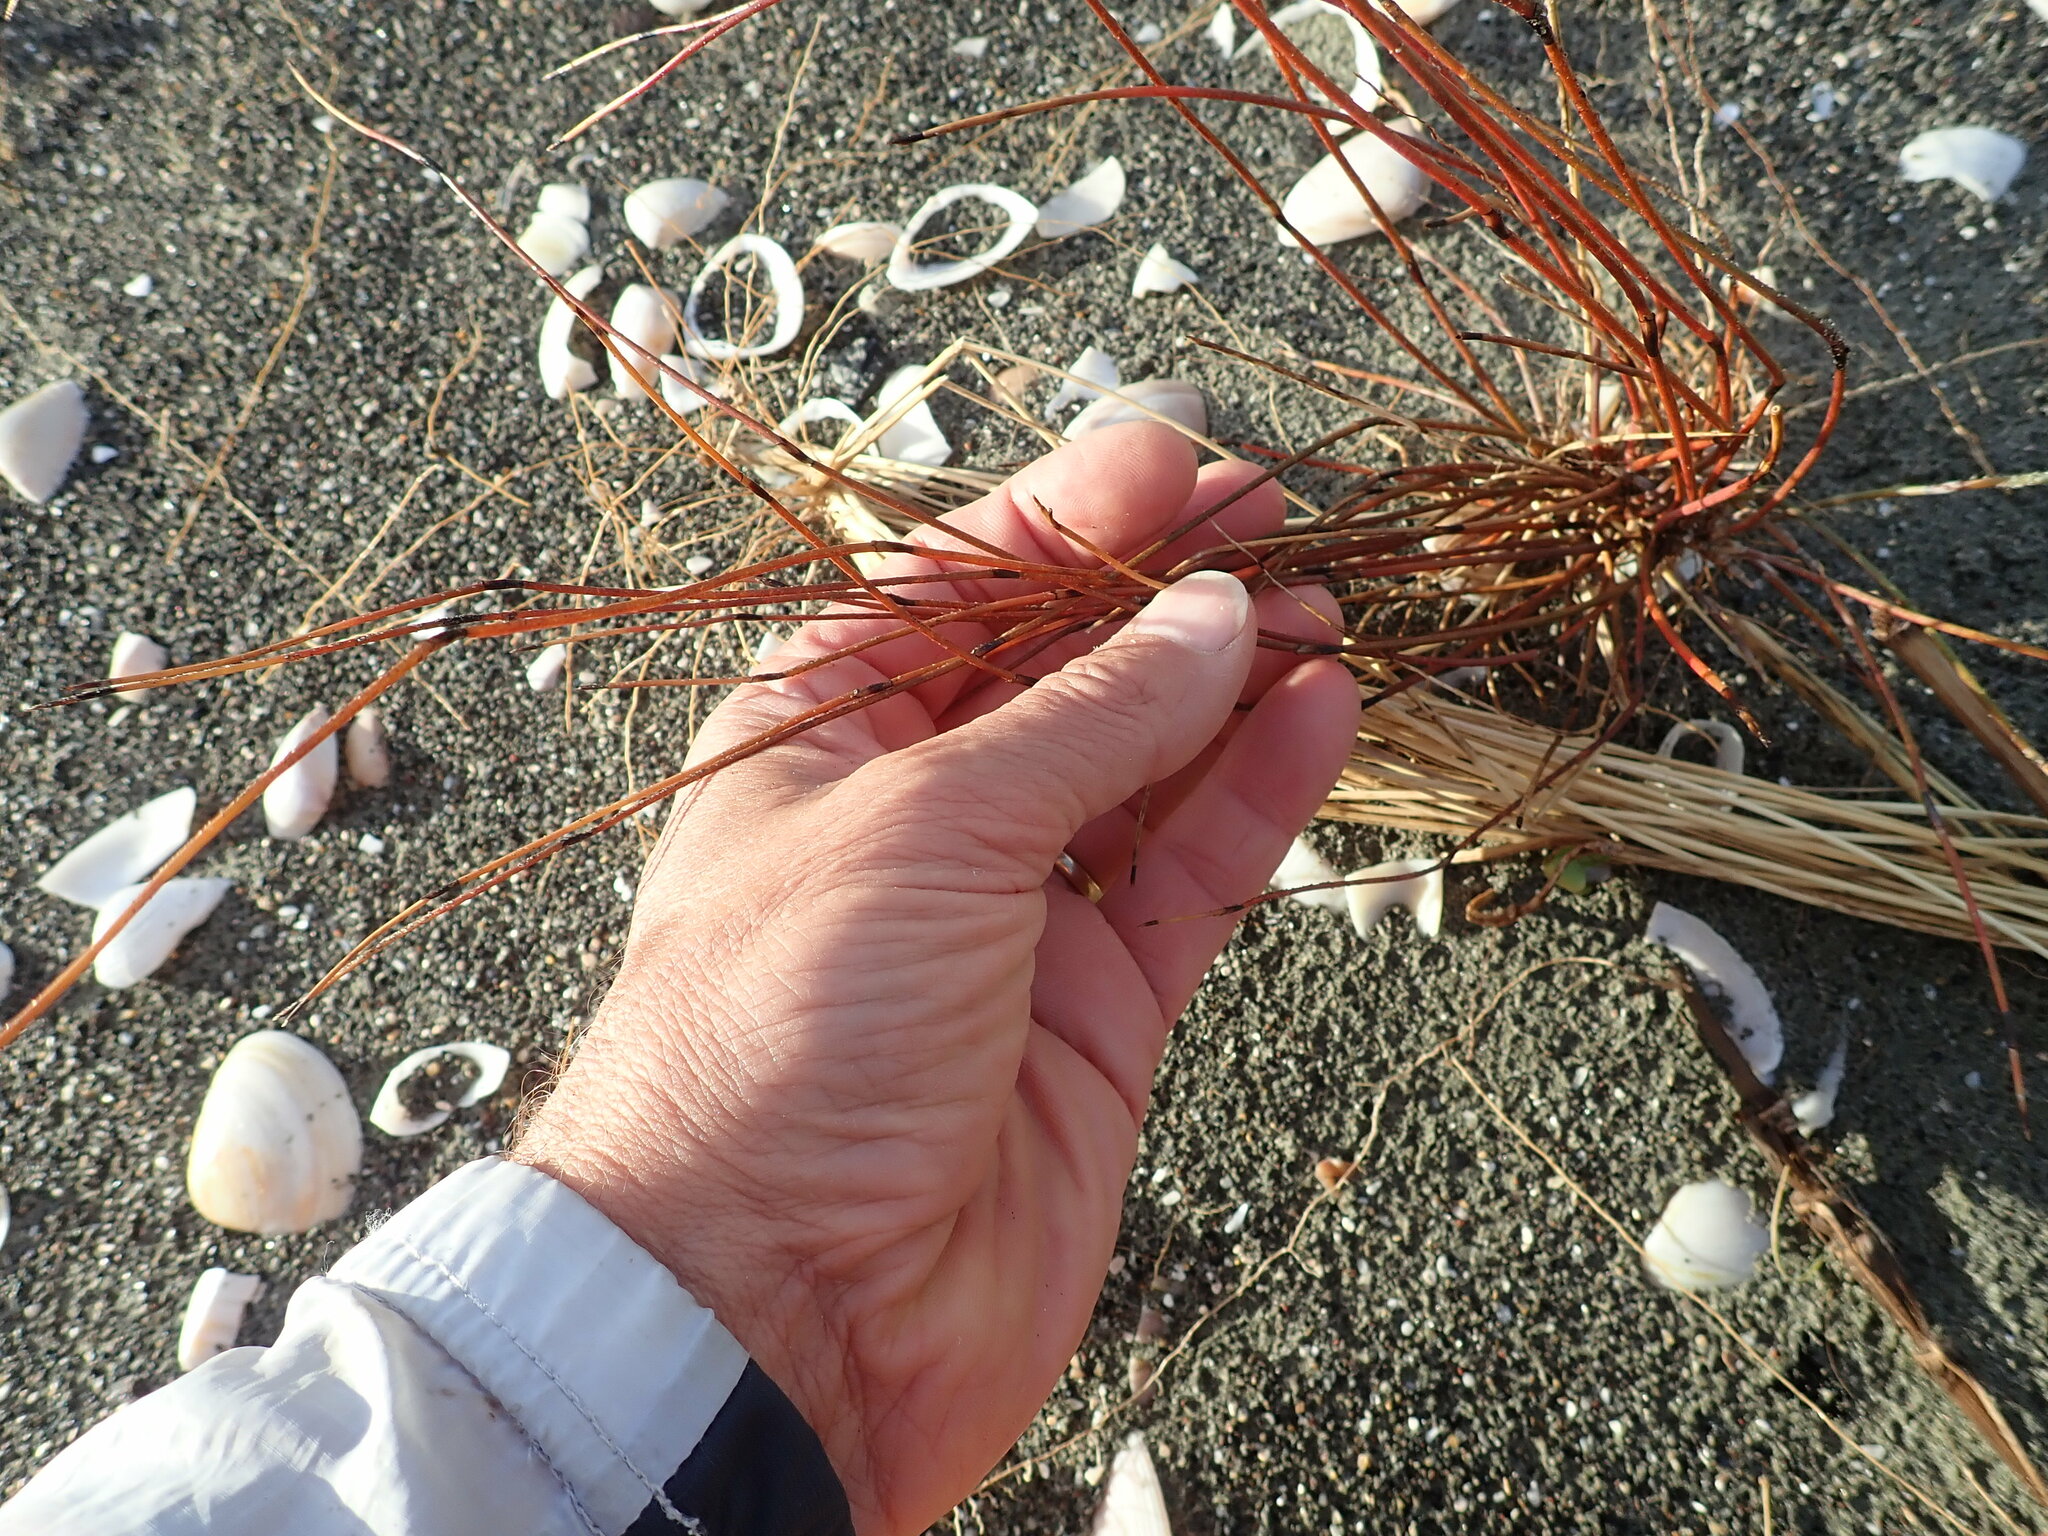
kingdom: Plantae
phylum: Tracheophyta
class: Liliopsida
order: Poales
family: Restionaceae
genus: Apodasmia
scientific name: Apodasmia similis
